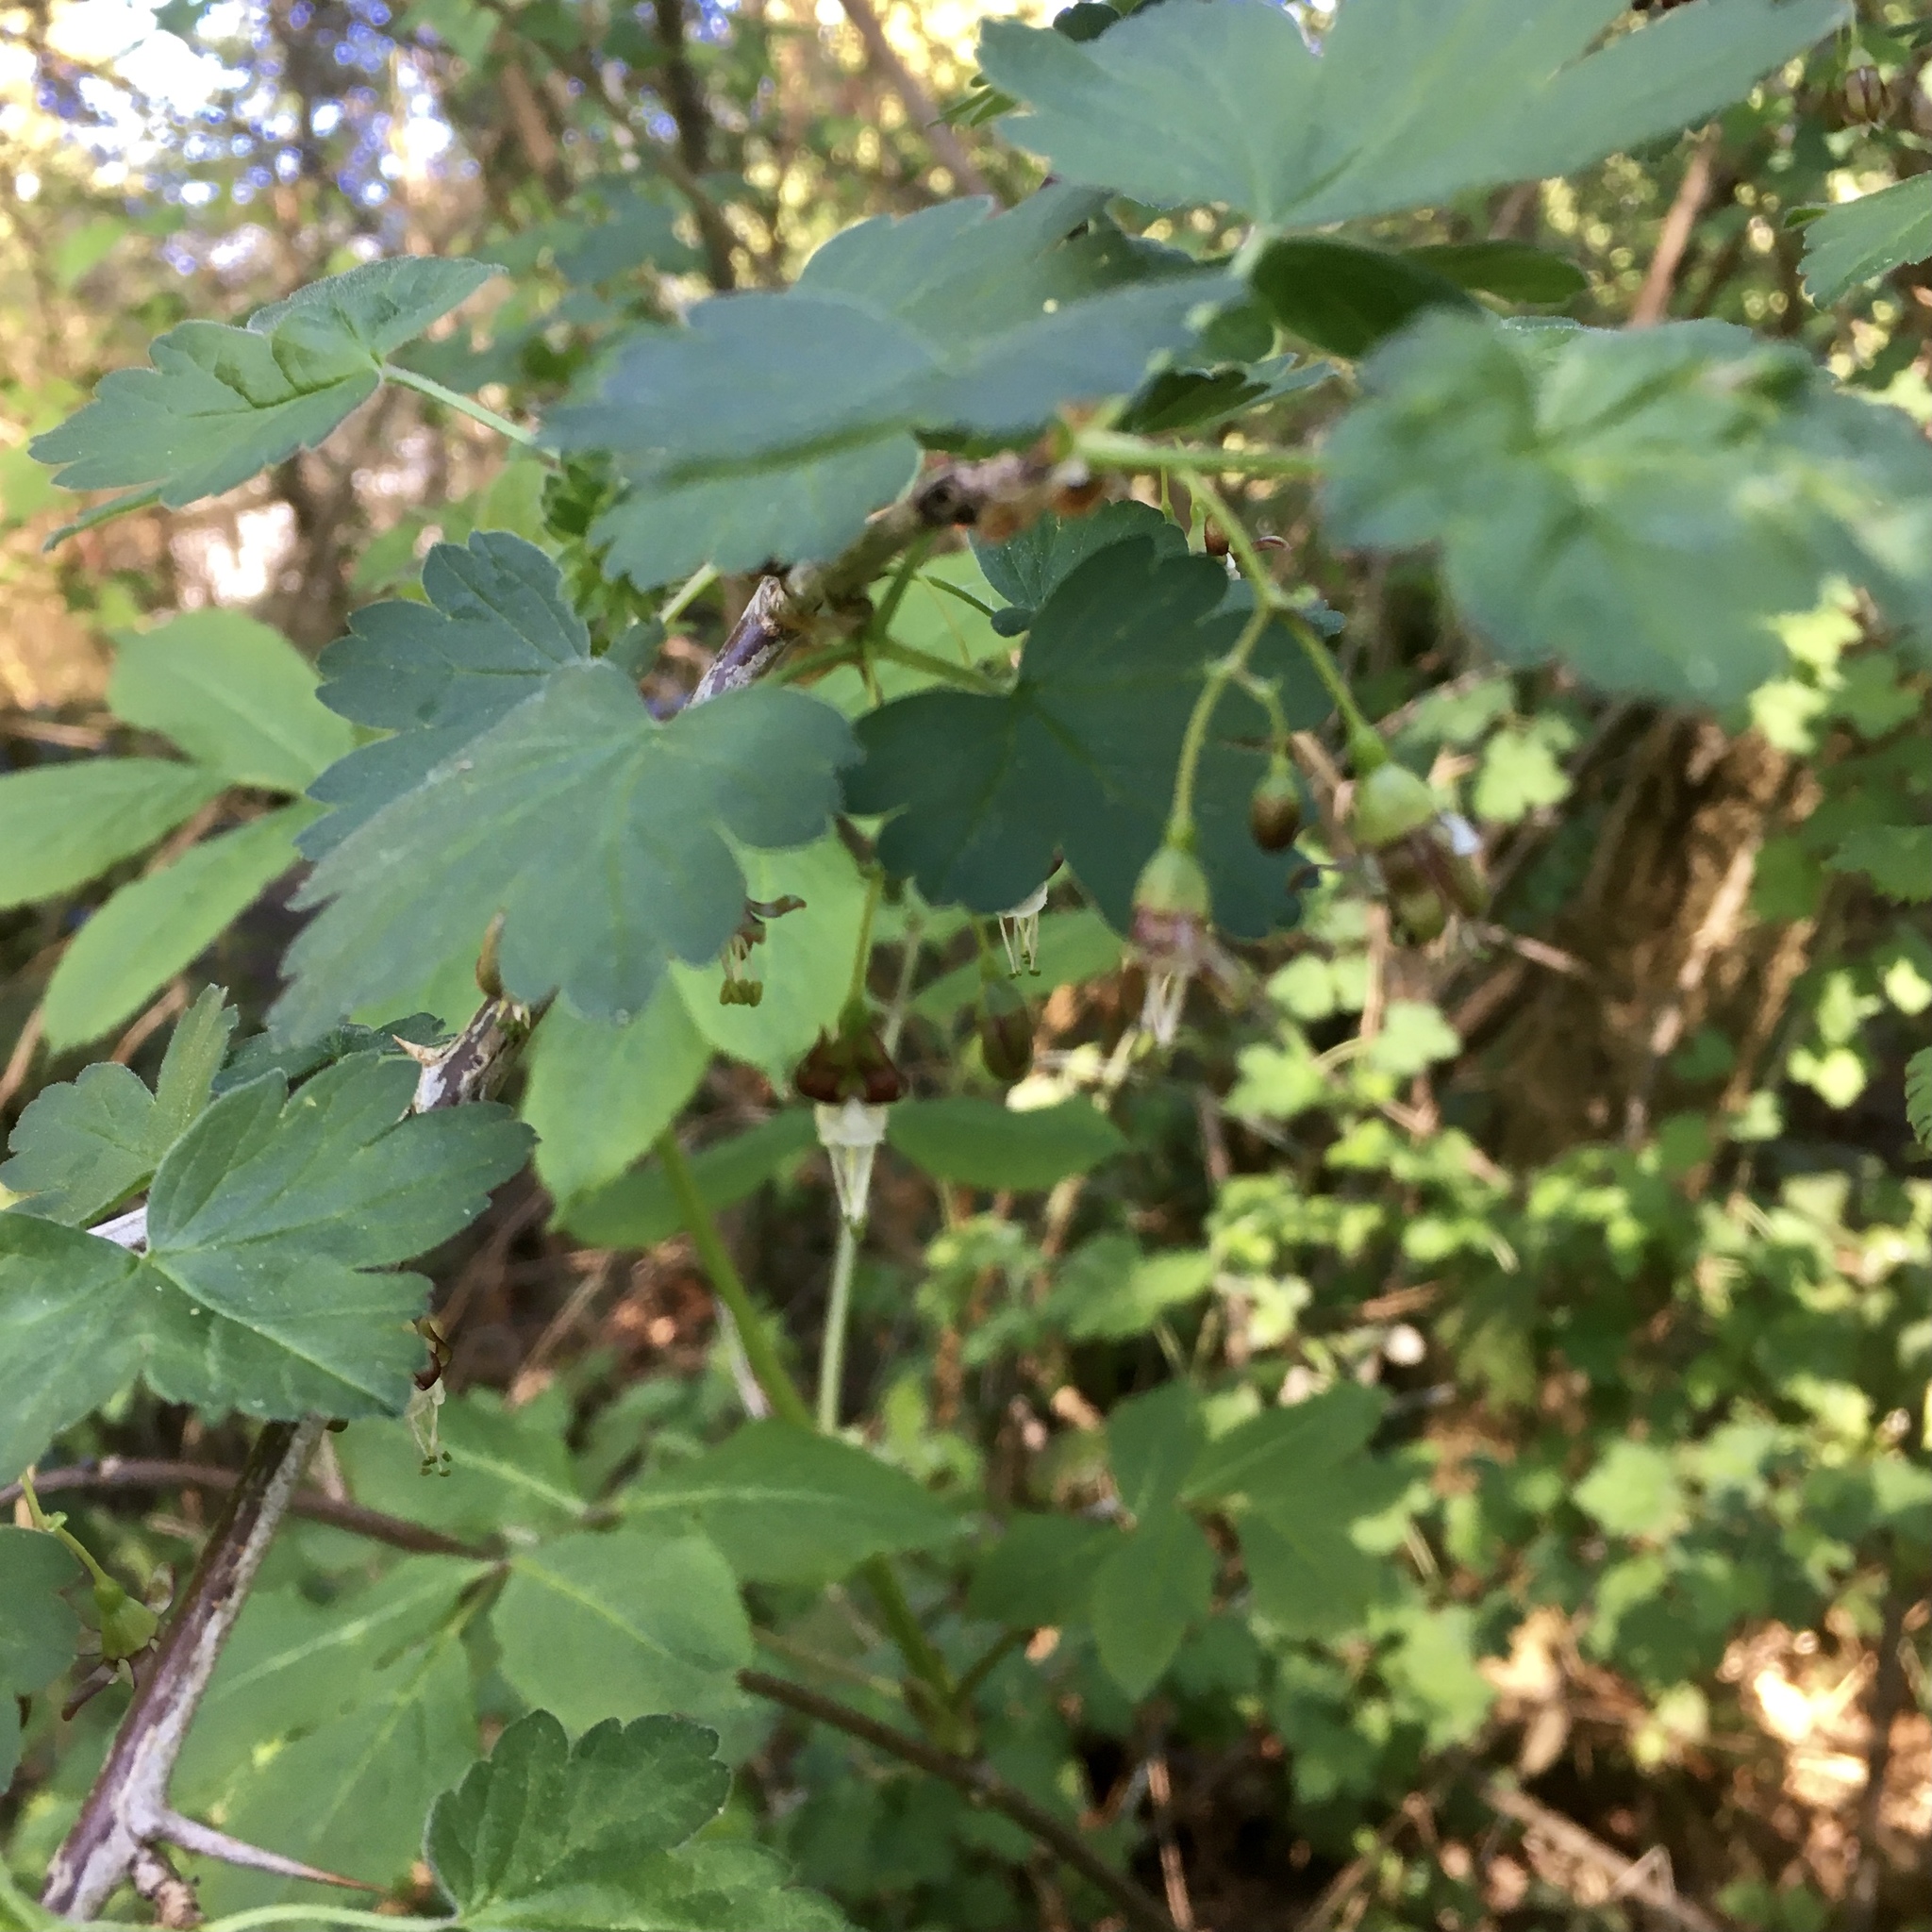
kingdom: Plantae
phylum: Tracheophyta
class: Magnoliopsida
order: Saxifragales
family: Grossulariaceae
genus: Ribes
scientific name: Ribes divaricatum
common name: Wild black gooseberry
